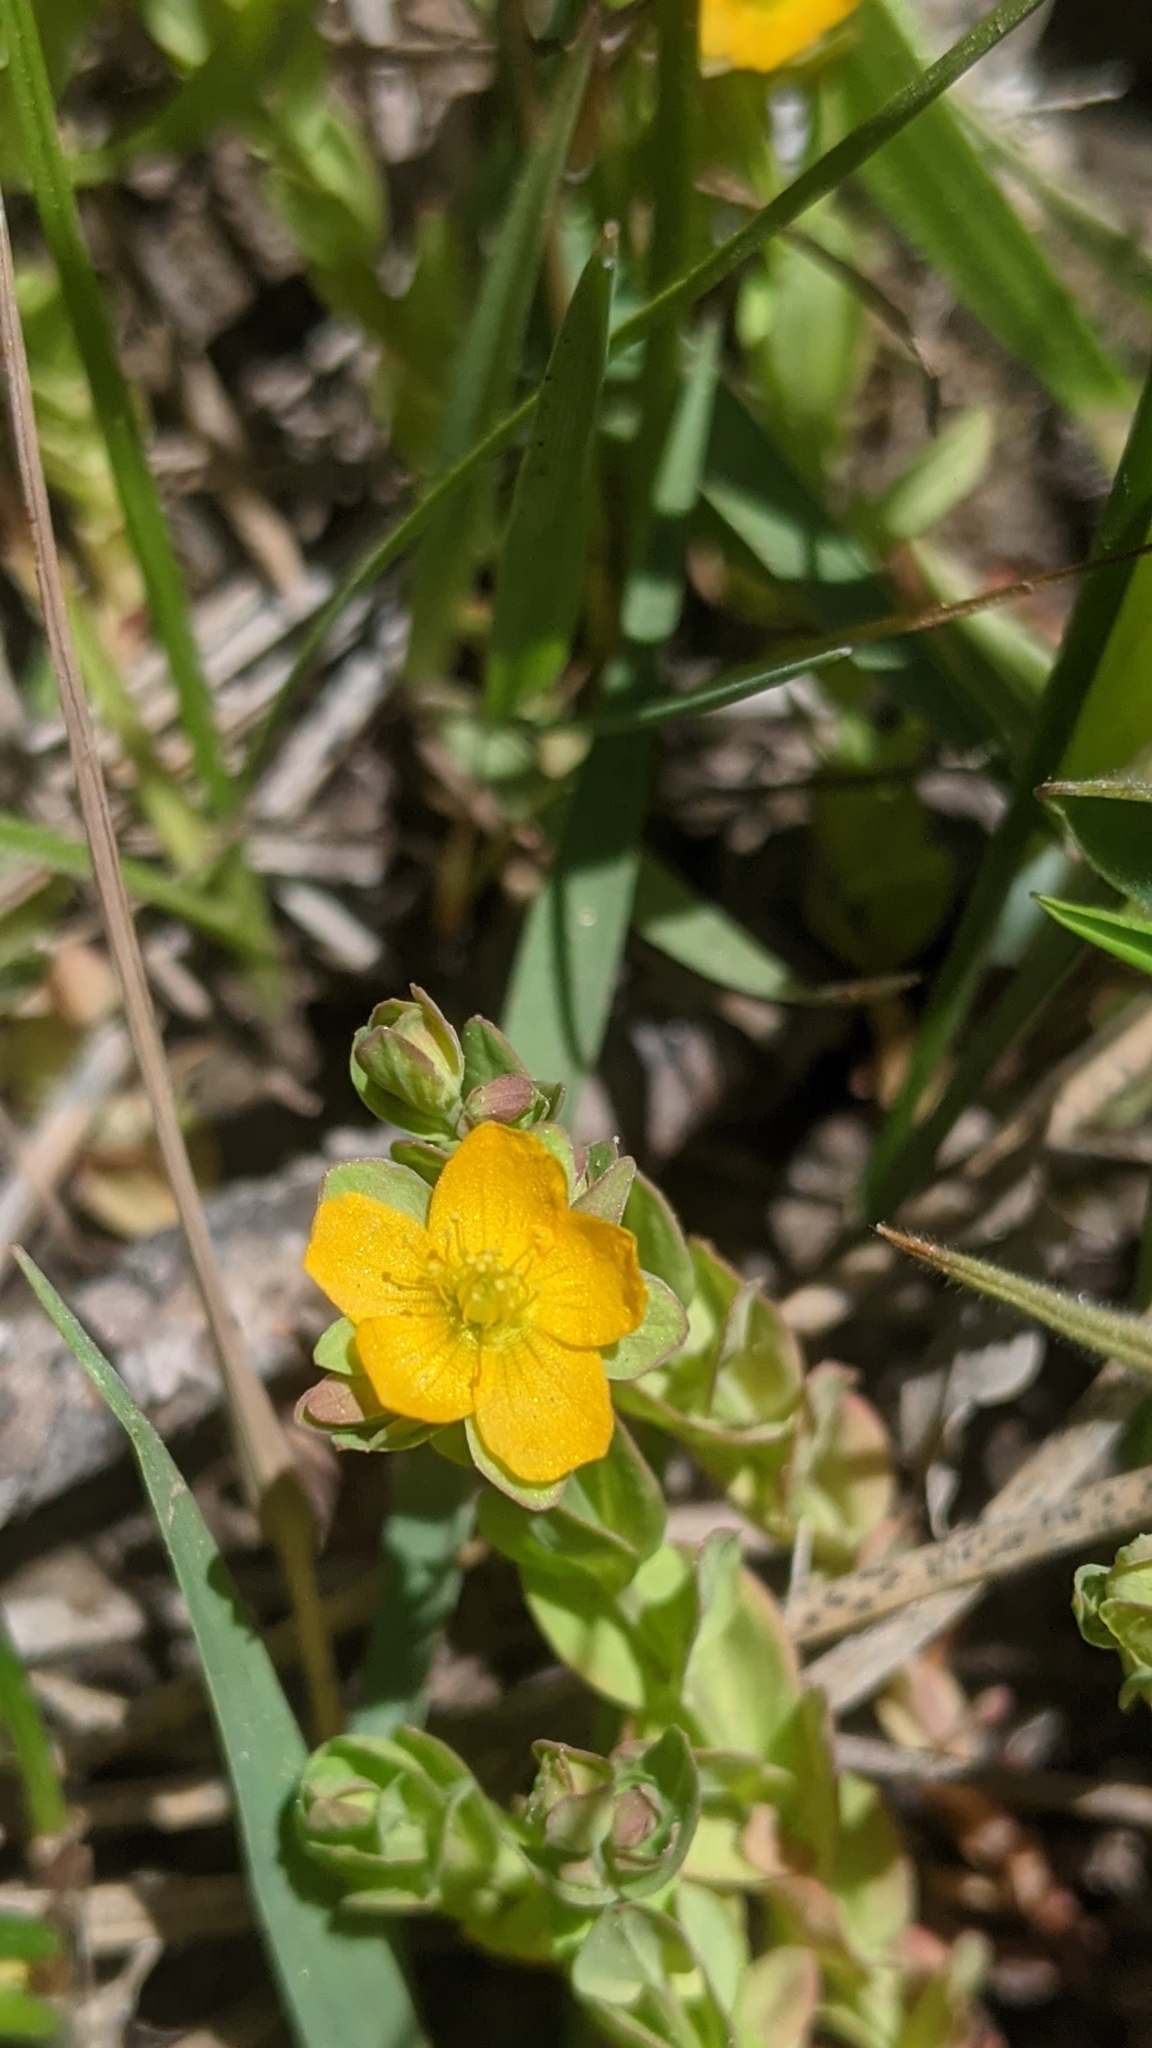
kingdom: Plantae
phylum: Tracheophyta
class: Magnoliopsida
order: Malpighiales
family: Hypericaceae
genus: Hypericum
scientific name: Hypericum anagalloides
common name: Bog st. john's-wort
